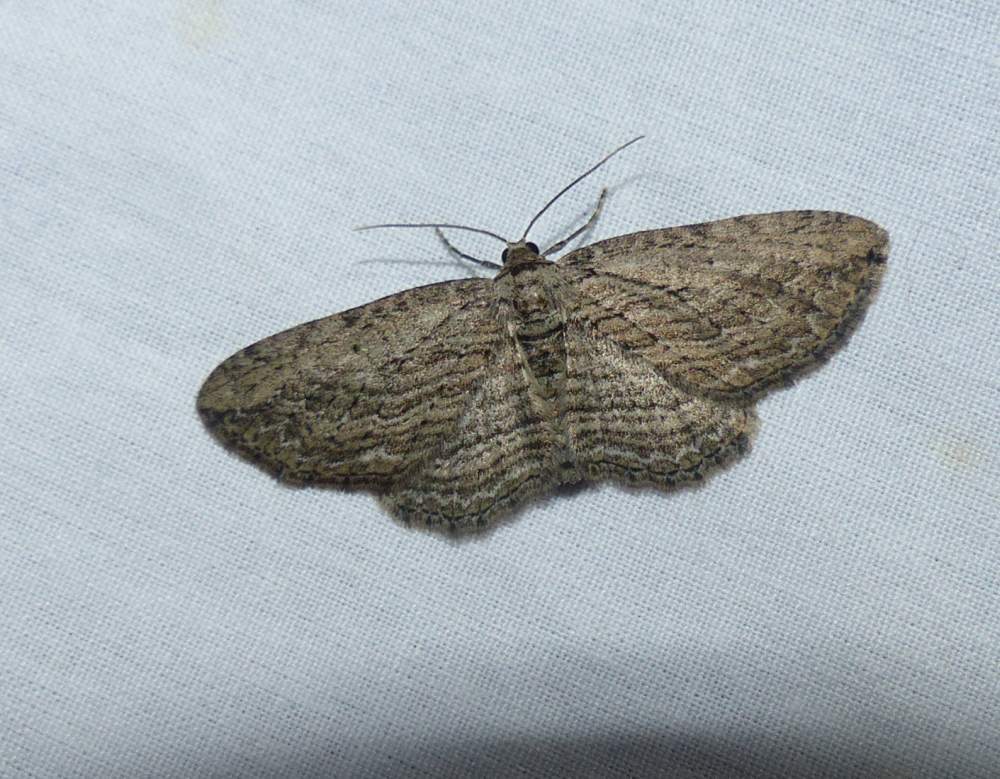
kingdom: Animalia
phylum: Arthropoda
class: Insecta
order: Lepidoptera
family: Geometridae
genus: Horisme
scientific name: Horisme intestinata
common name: Brown bark carpet
